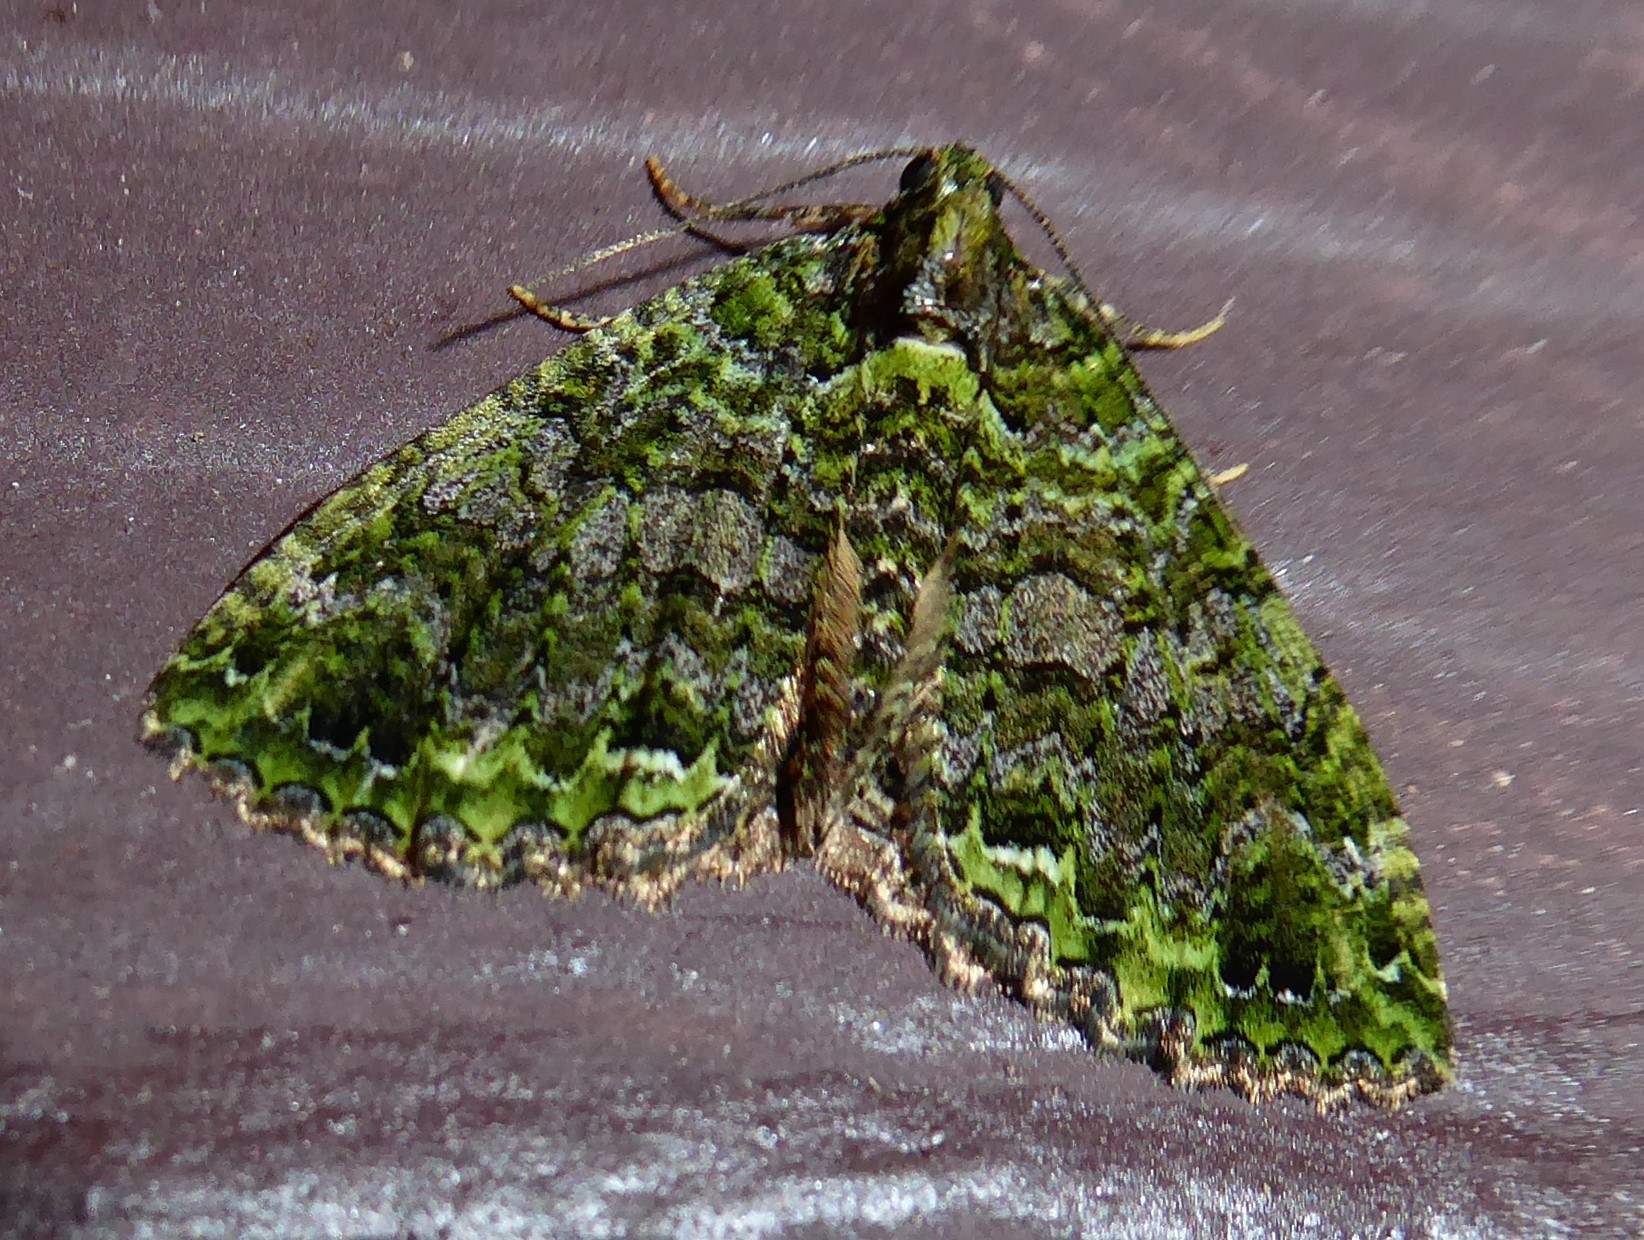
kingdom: Animalia
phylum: Arthropoda
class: Insecta
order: Lepidoptera
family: Geometridae
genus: Austrocidaria
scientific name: Austrocidaria similata
